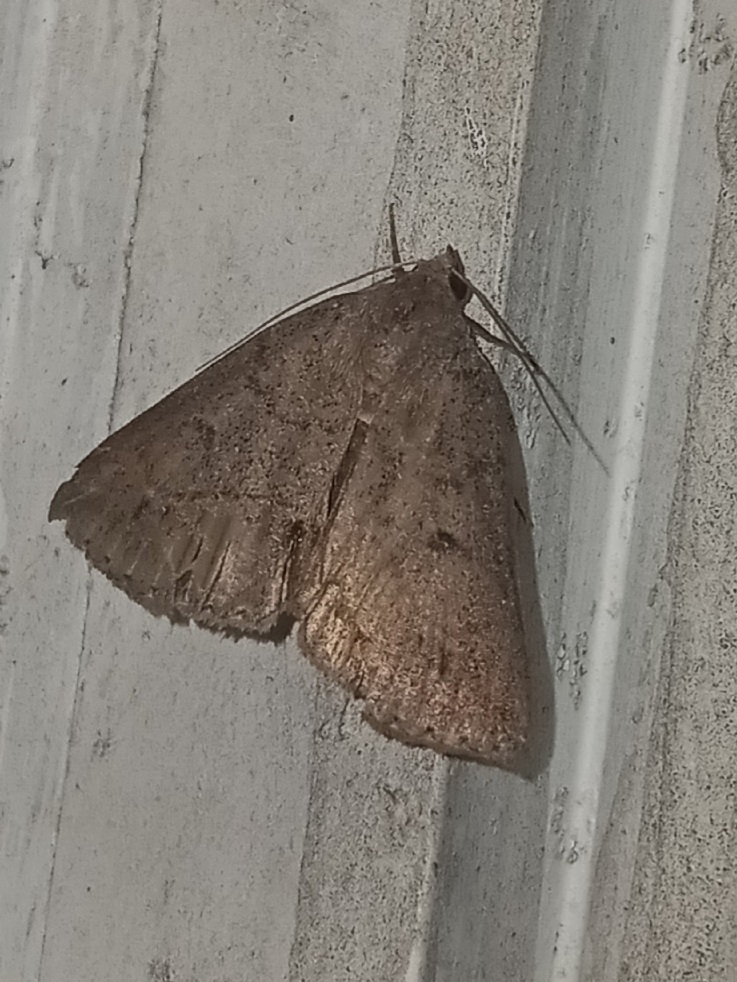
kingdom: Animalia
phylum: Arthropoda
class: Insecta
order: Lepidoptera
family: Erebidae
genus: Argyrostrotis
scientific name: Argyrostrotis flavistriaria
